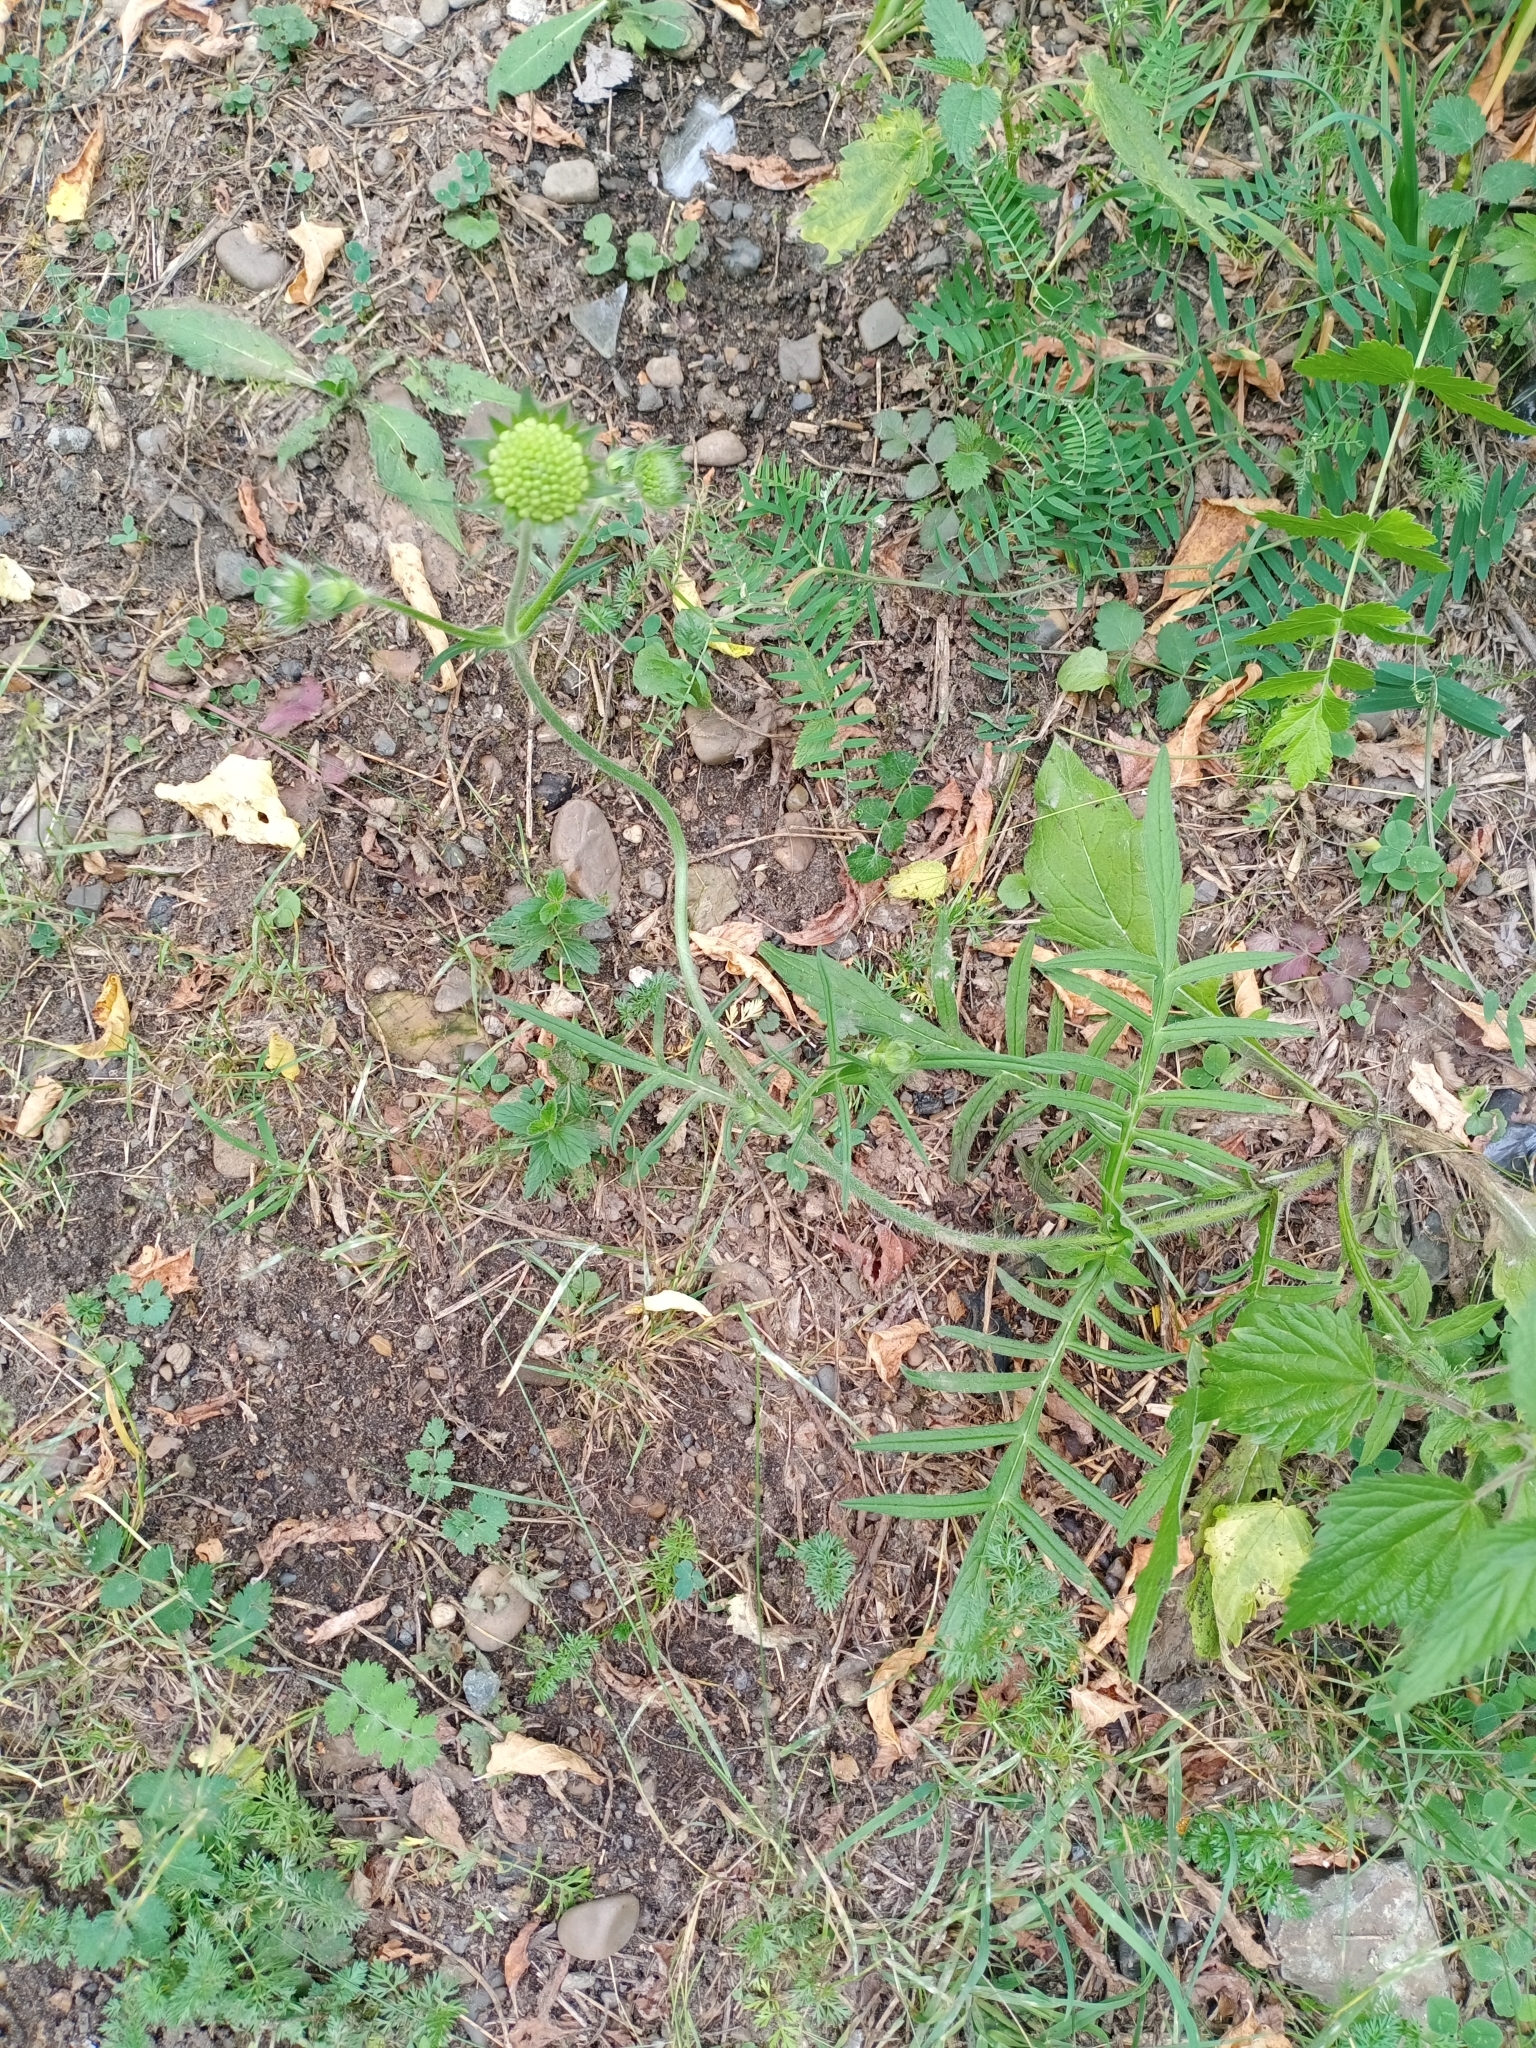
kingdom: Plantae
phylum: Tracheophyta
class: Magnoliopsida
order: Dipsacales
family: Caprifoliaceae
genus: Knautia
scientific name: Knautia arvensis
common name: Field scabiosa
